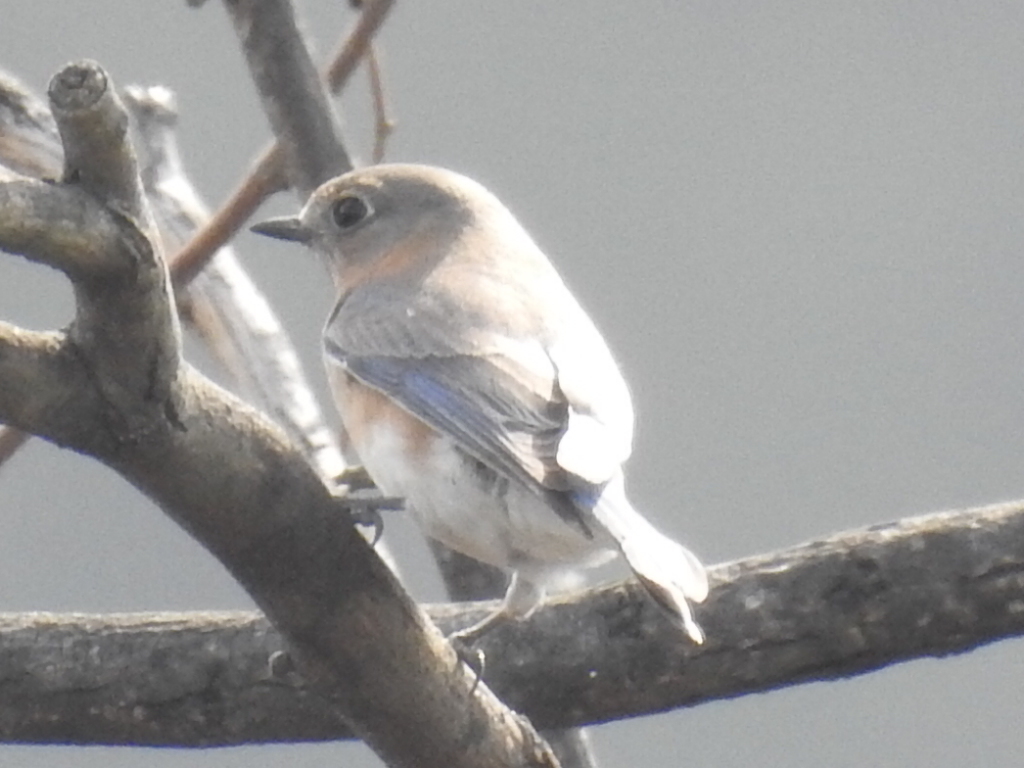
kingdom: Animalia
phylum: Chordata
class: Aves
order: Passeriformes
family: Turdidae
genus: Sialia
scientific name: Sialia sialis
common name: Eastern bluebird
